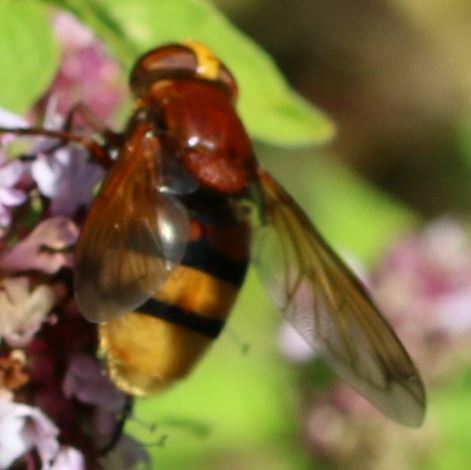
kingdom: Animalia
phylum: Arthropoda
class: Insecta
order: Diptera
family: Syrphidae
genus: Volucella
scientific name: Volucella zonaria
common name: Hornet hoverfly
